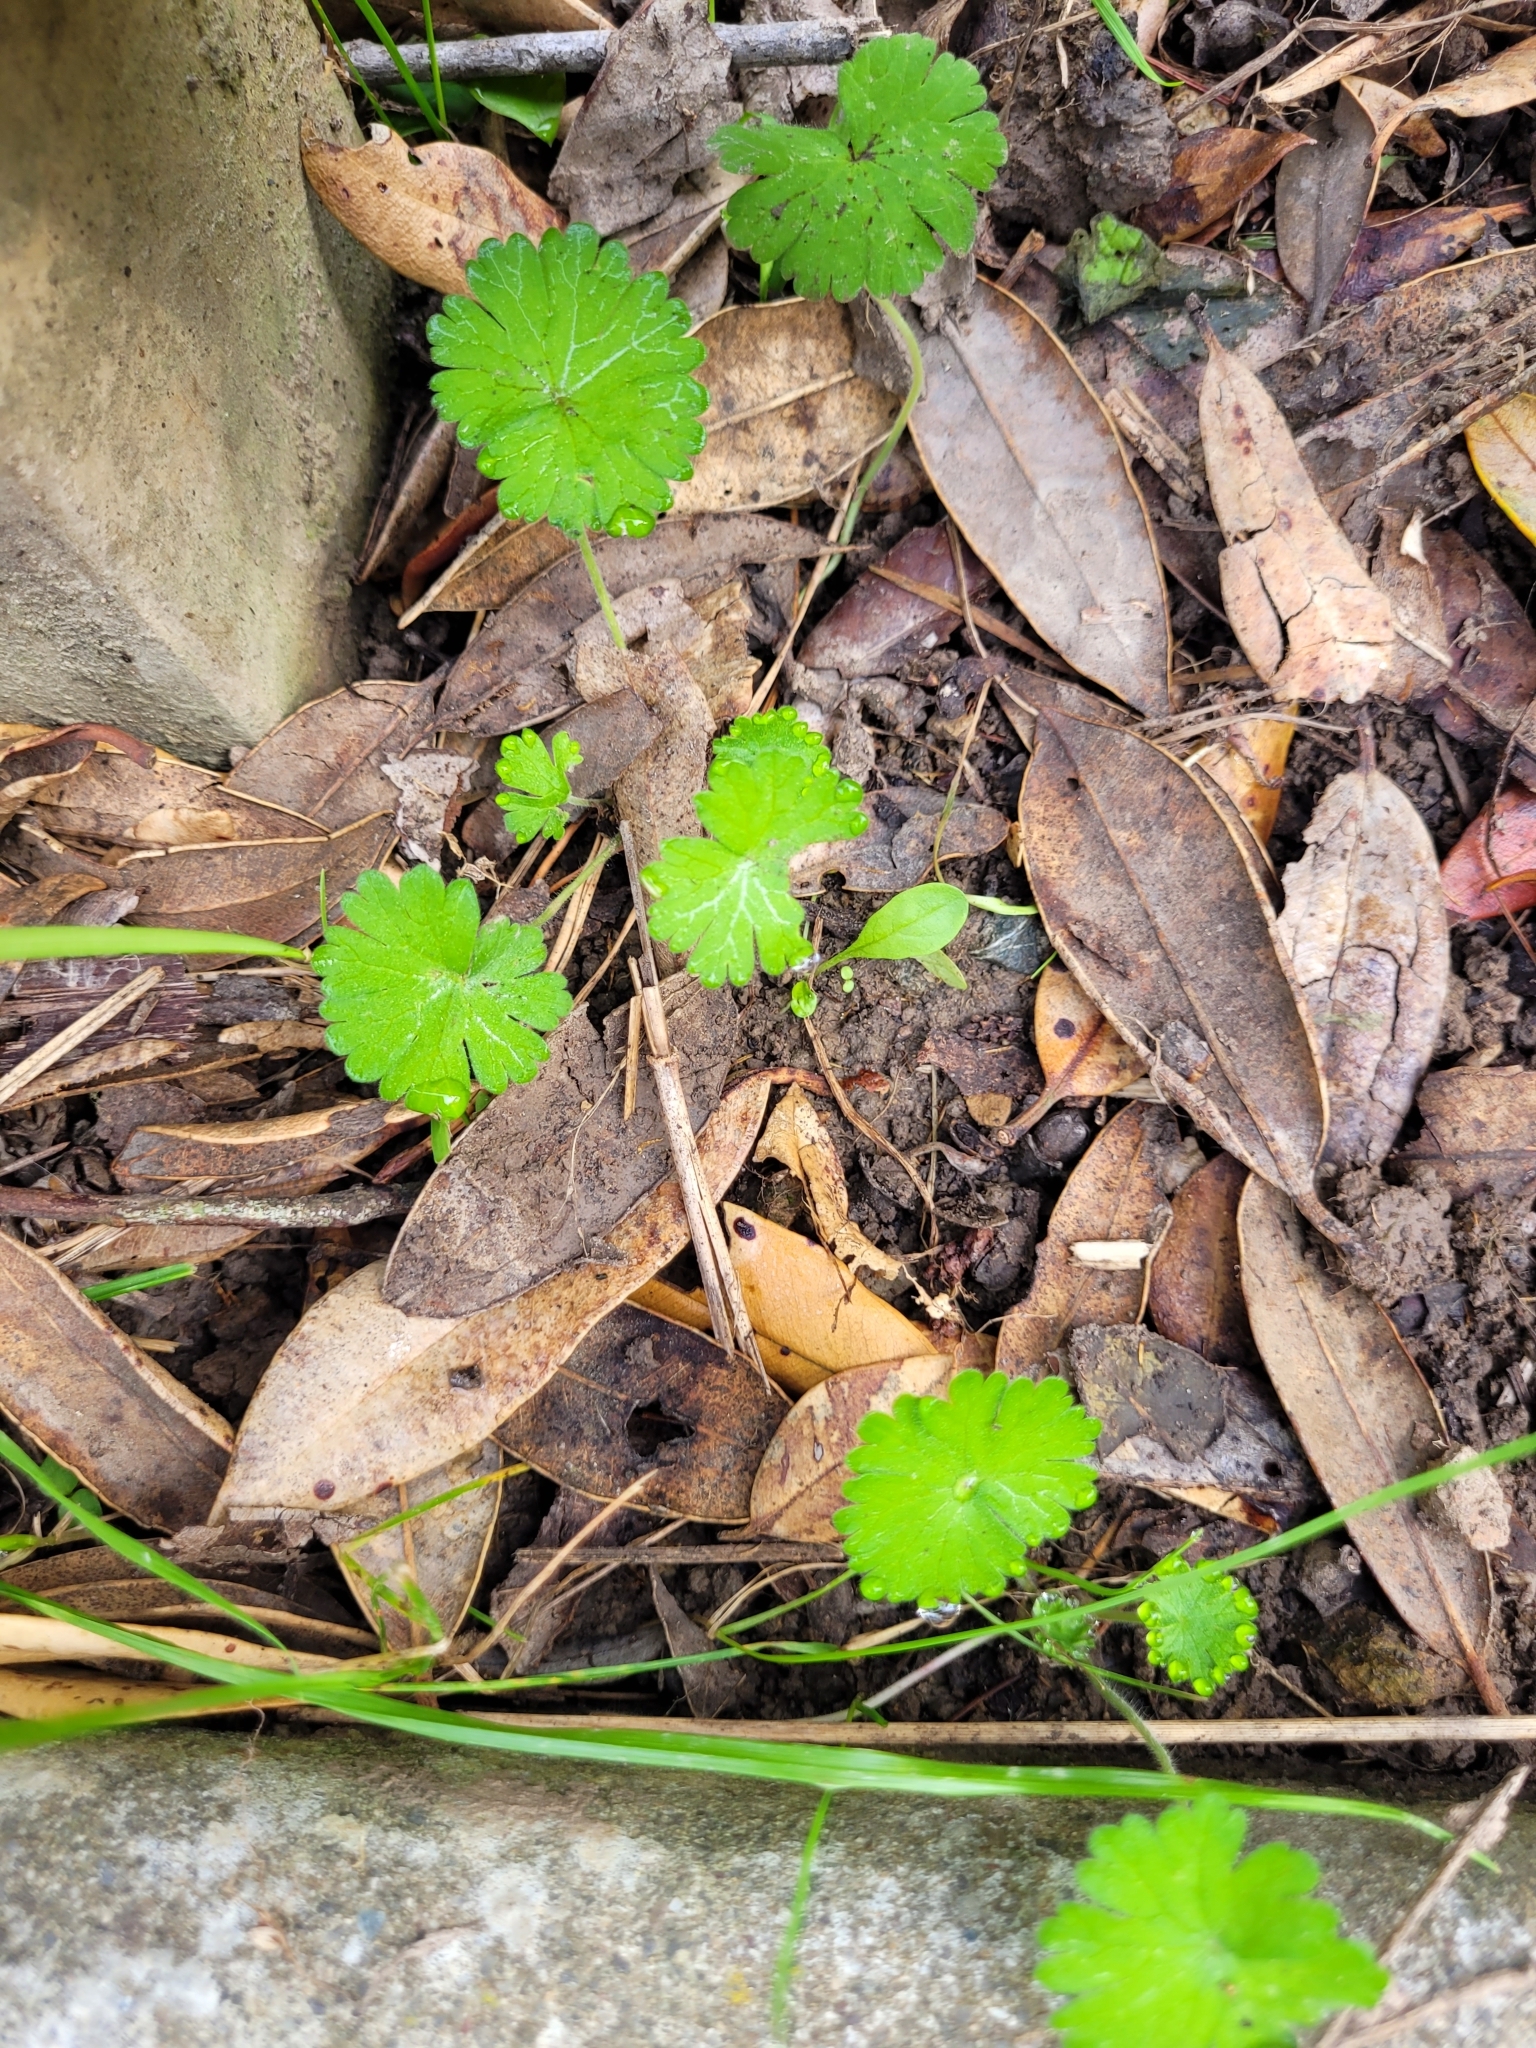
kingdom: Plantae
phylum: Tracheophyta
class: Magnoliopsida
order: Geraniales
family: Geraniaceae
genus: Geranium
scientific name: Geranium molle
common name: Dove's-foot crane's-bill
